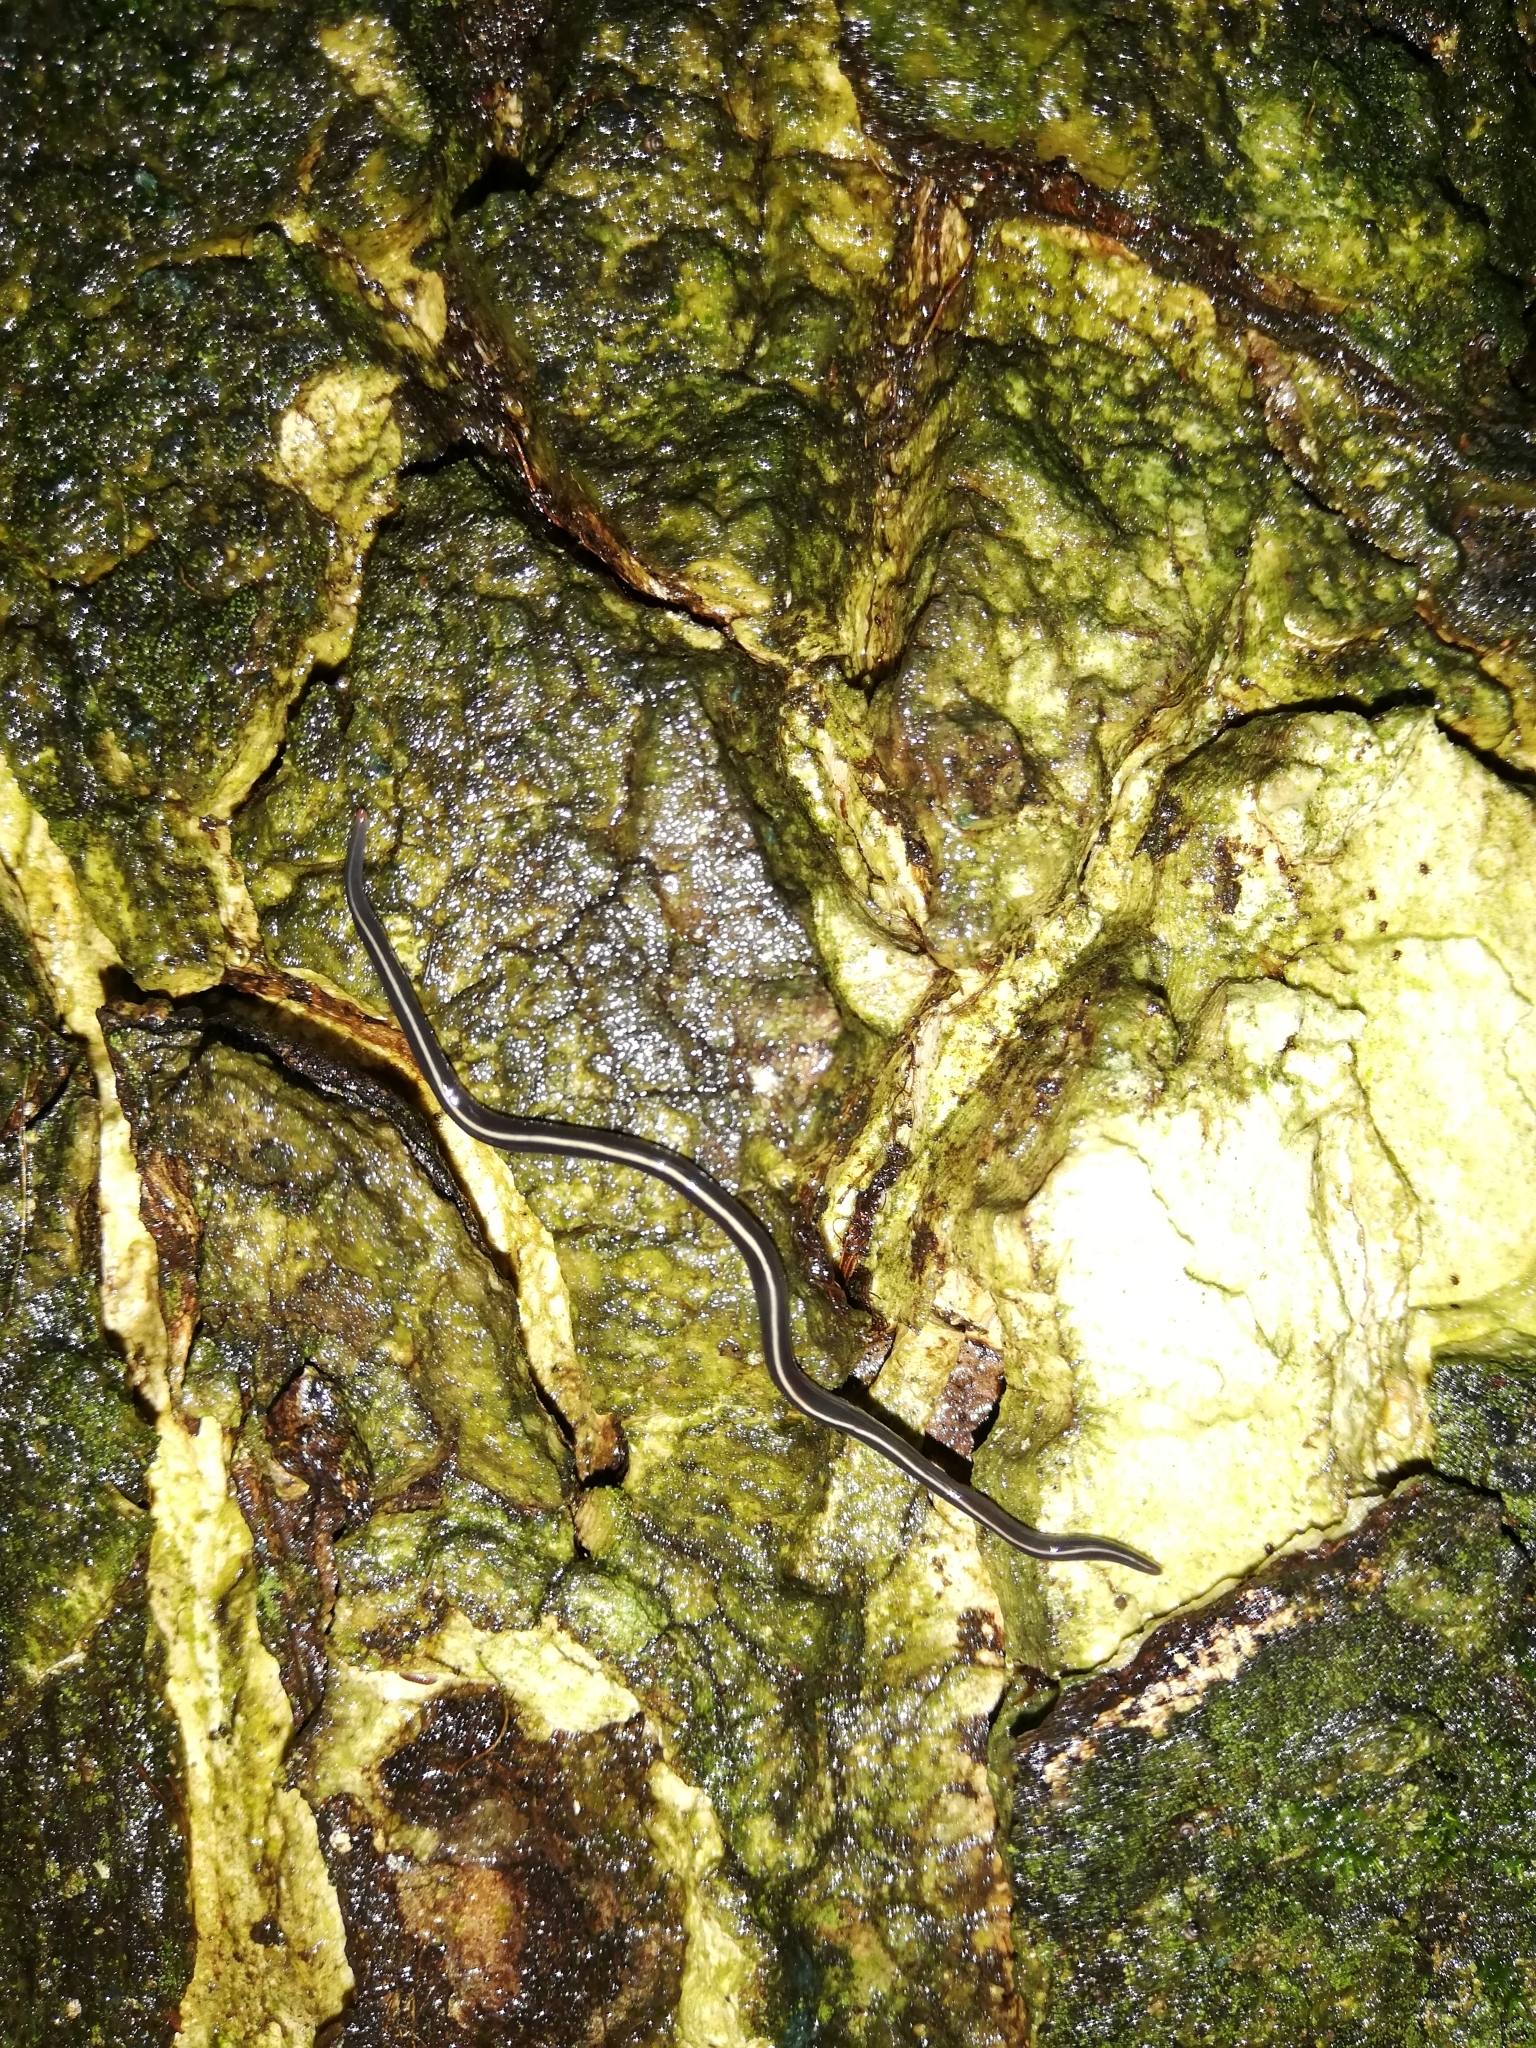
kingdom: Animalia
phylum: Platyhelminthes
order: Tricladida
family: Geoplanidae
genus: Caenoplana
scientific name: Caenoplana coerulea
